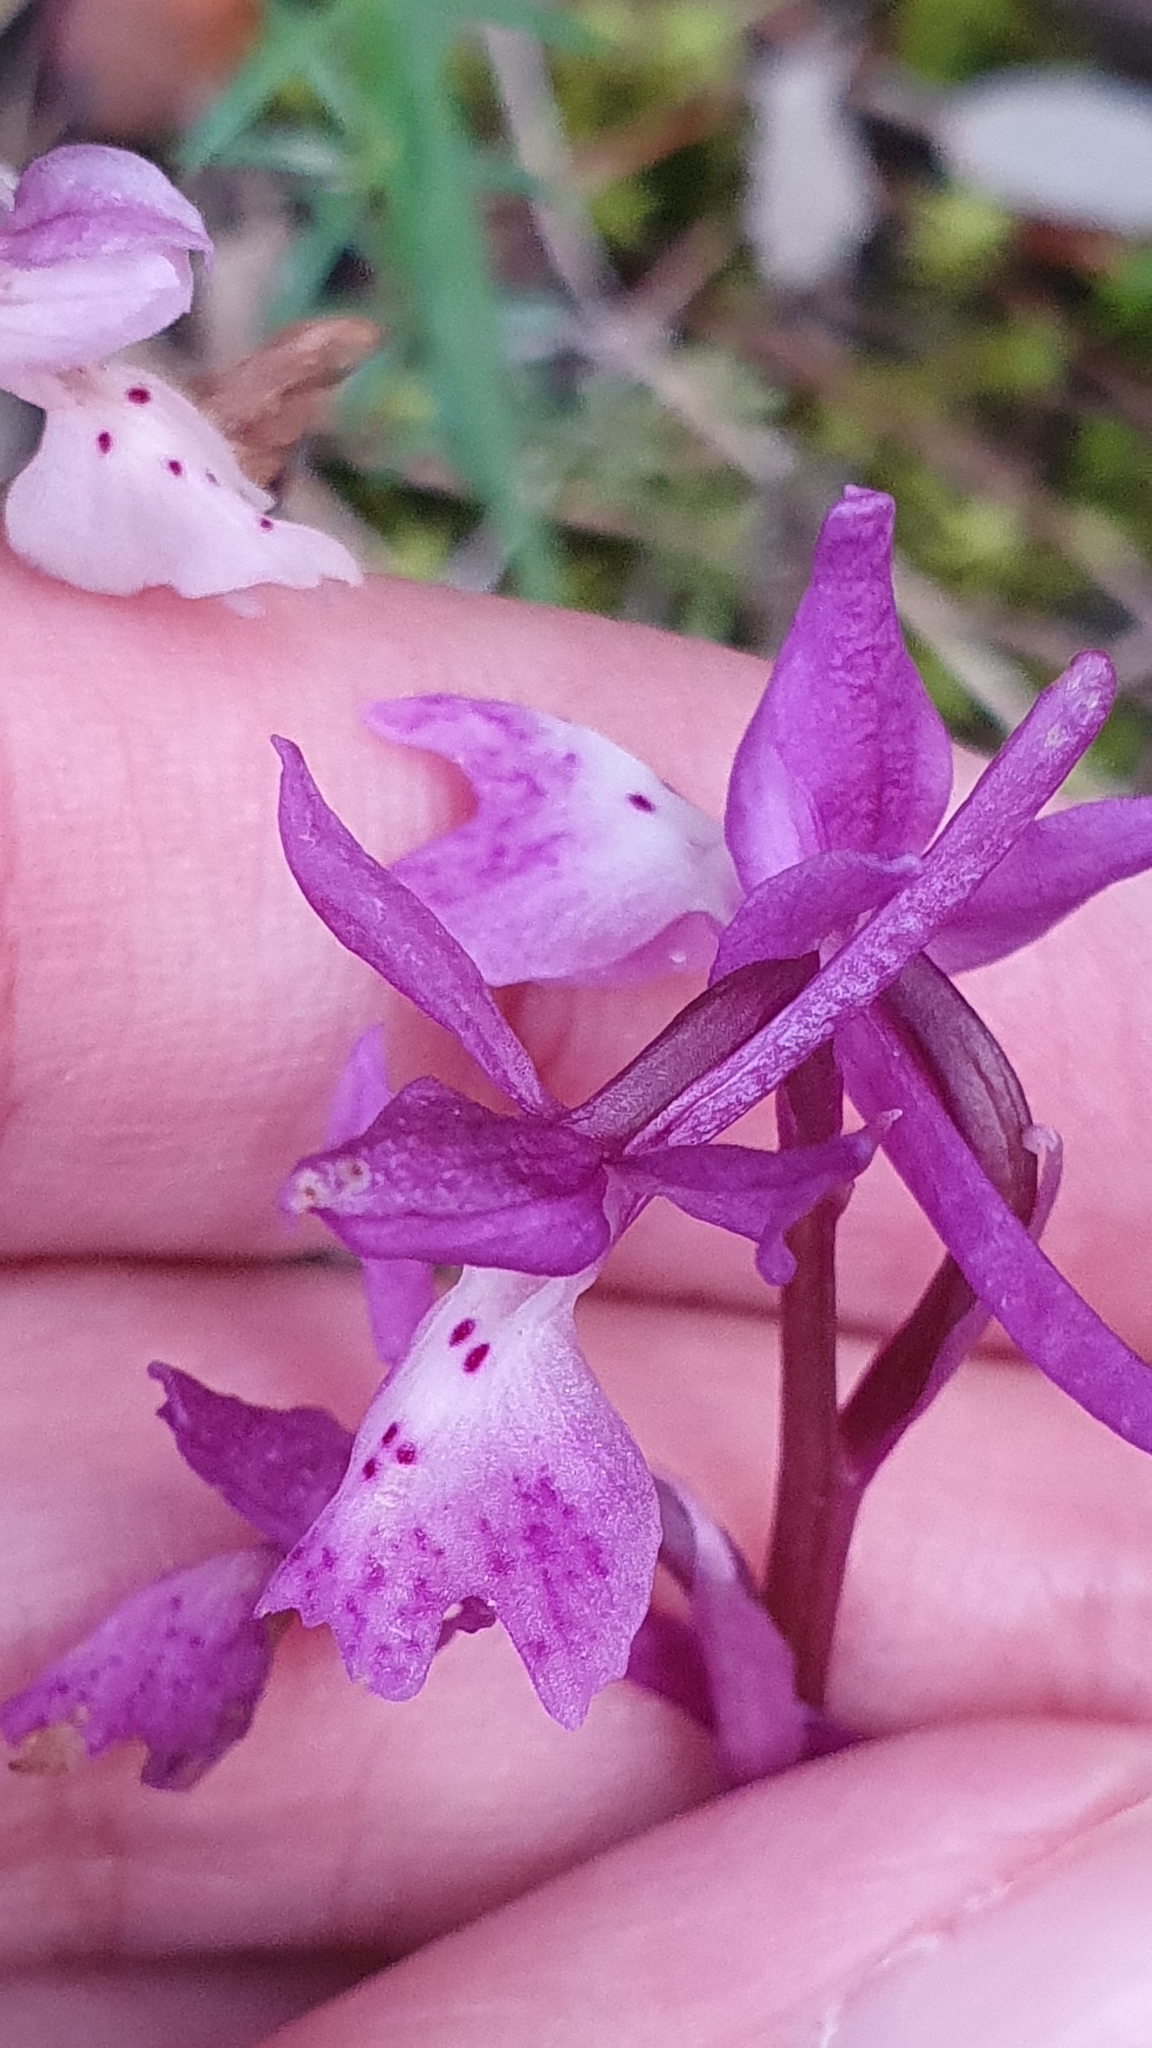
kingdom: Plantae
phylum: Tracheophyta
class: Liliopsida
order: Asparagales
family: Orchidaceae
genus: Orchis
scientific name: Orchis laeta
